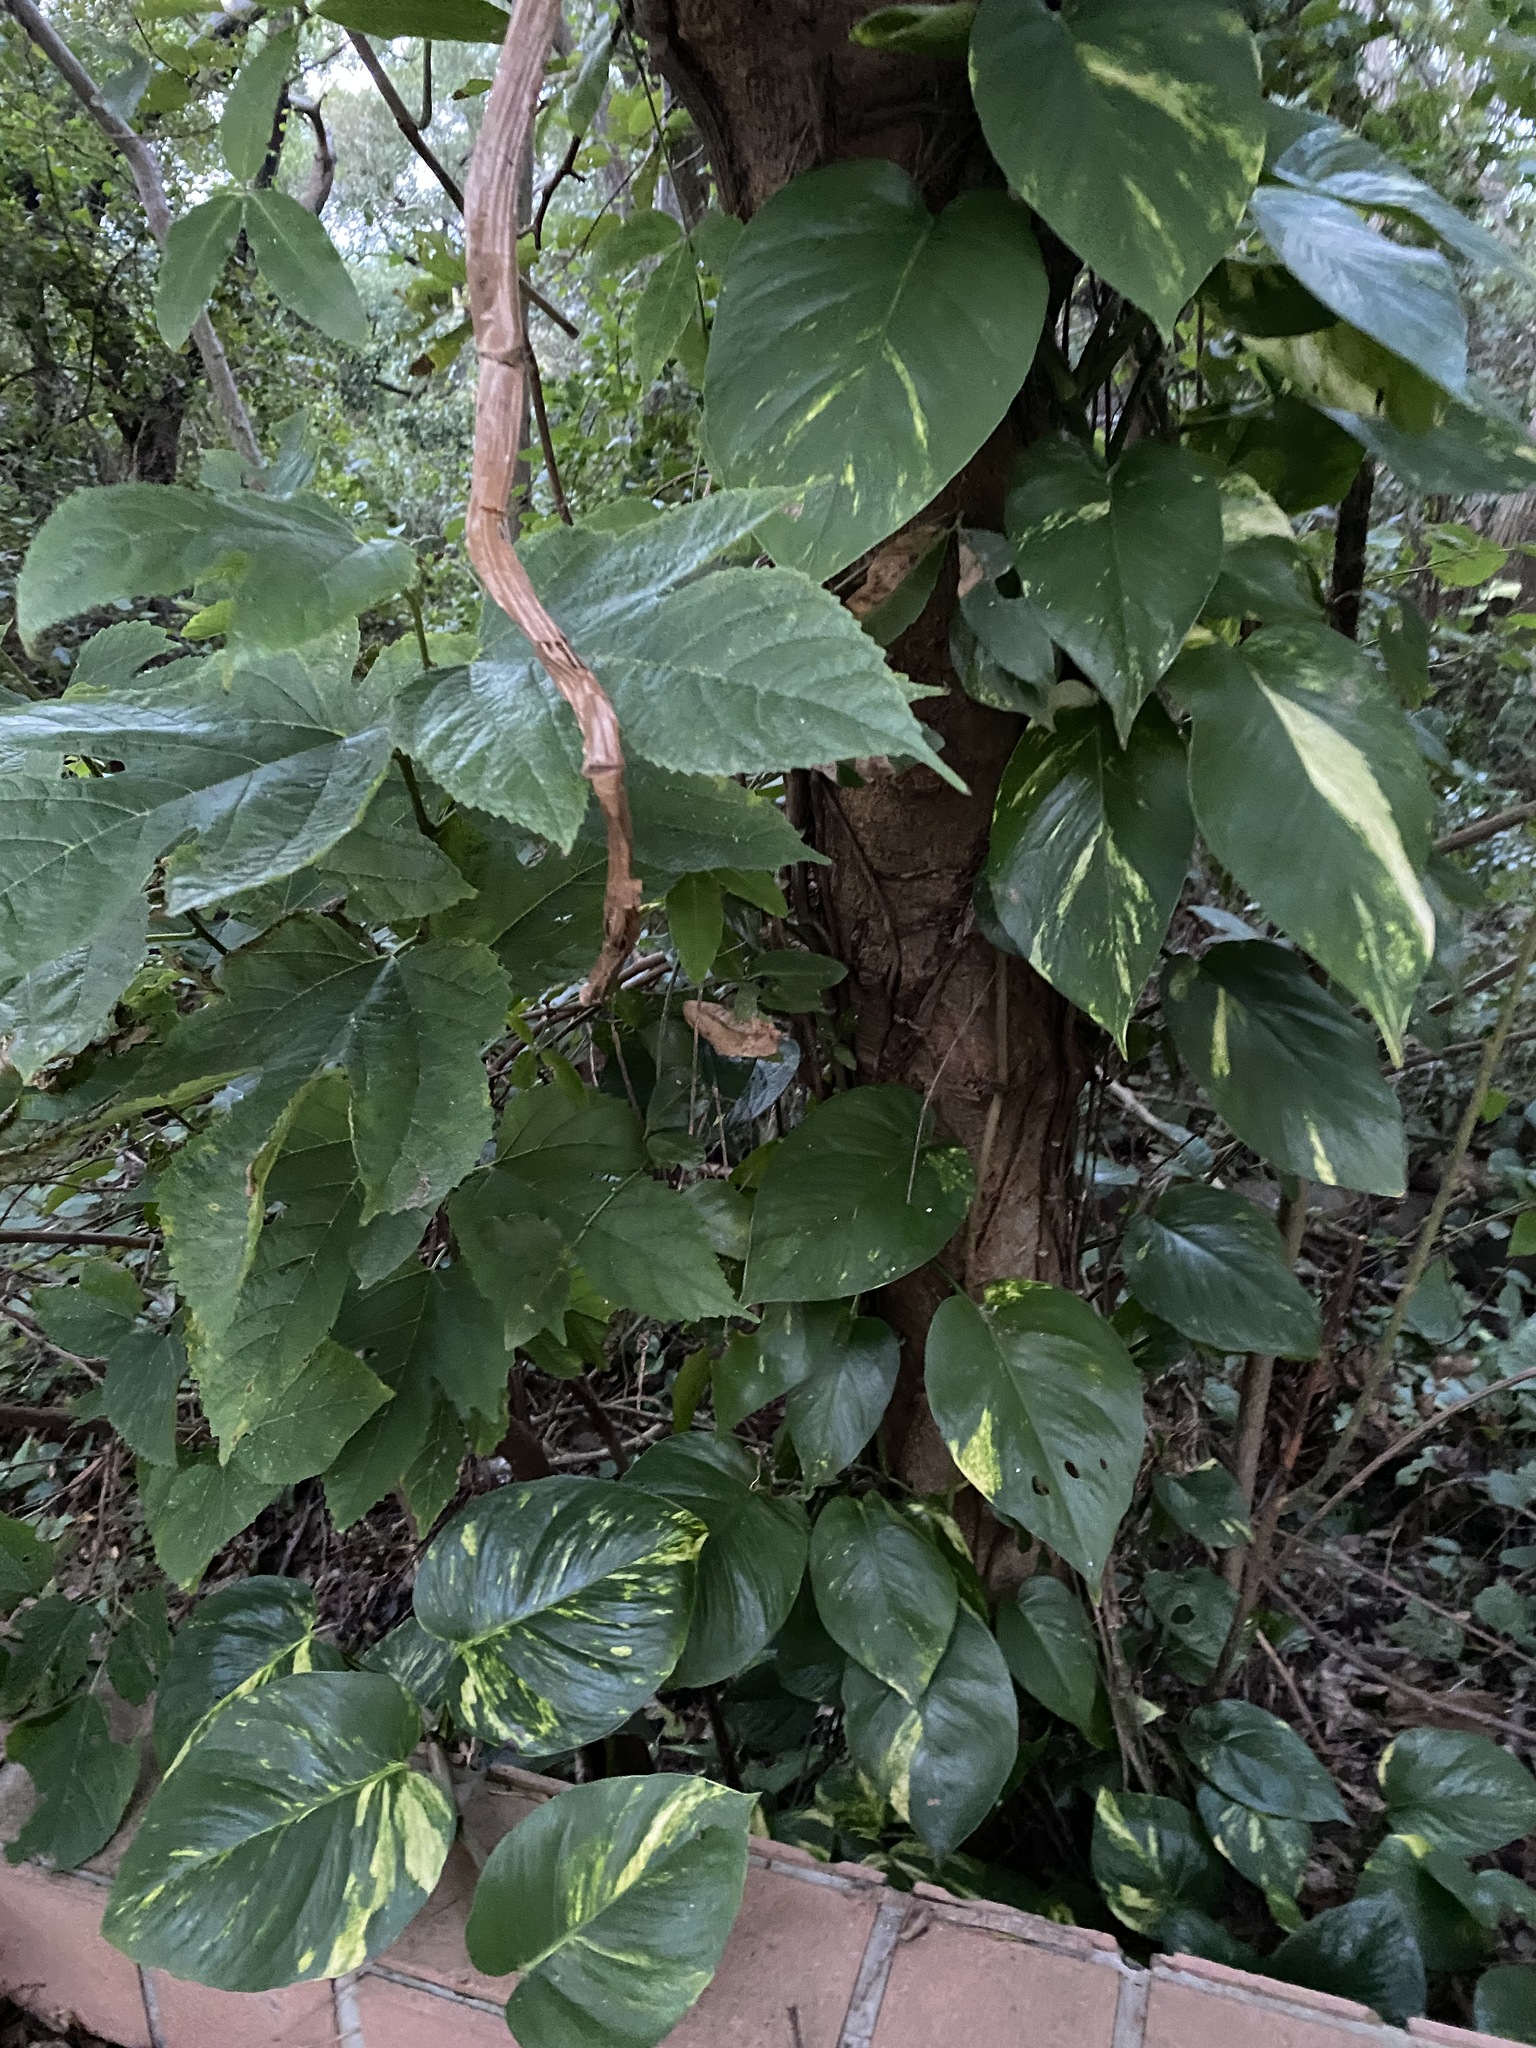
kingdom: Plantae
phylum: Tracheophyta
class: Liliopsida
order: Alismatales
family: Araceae
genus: Epipremnum
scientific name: Epipremnum aureum
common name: Golden hunter's-robe
